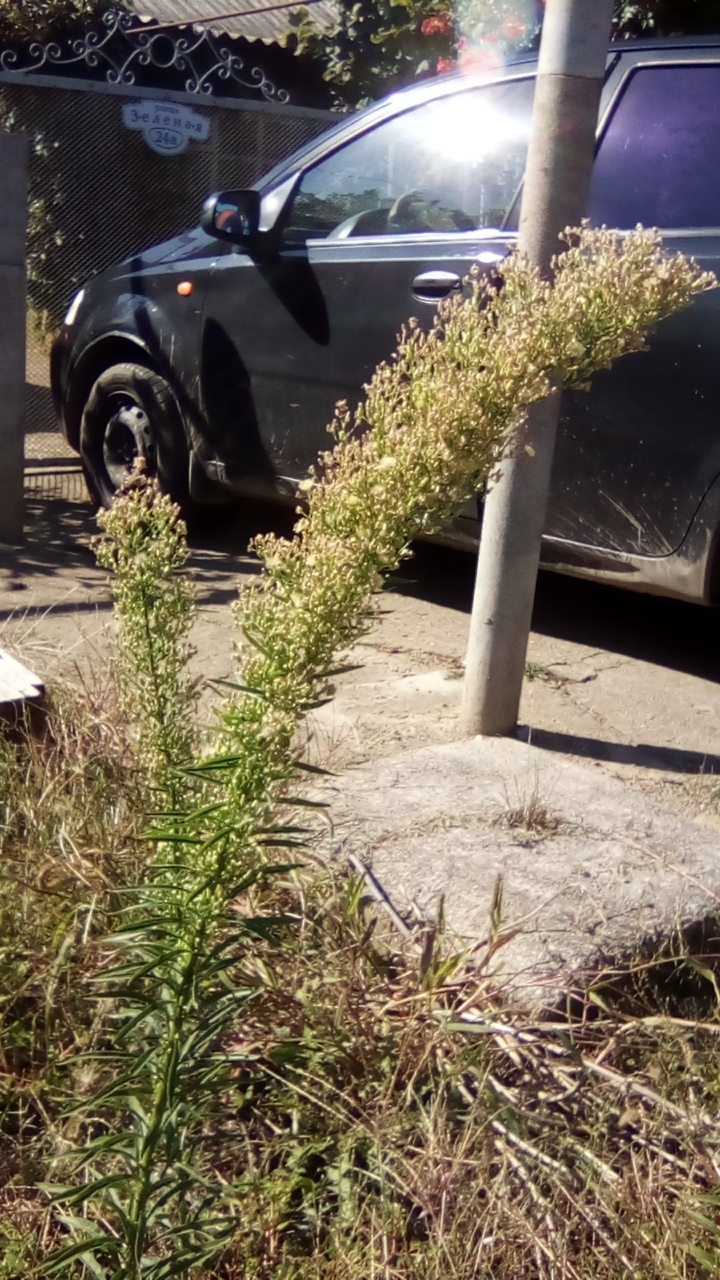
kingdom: Plantae
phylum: Tracheophyta
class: Magnoliopsida
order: Asterales
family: Asteraceae
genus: Erigeron
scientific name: Erigeron canadensis
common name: Canadian fleabane
